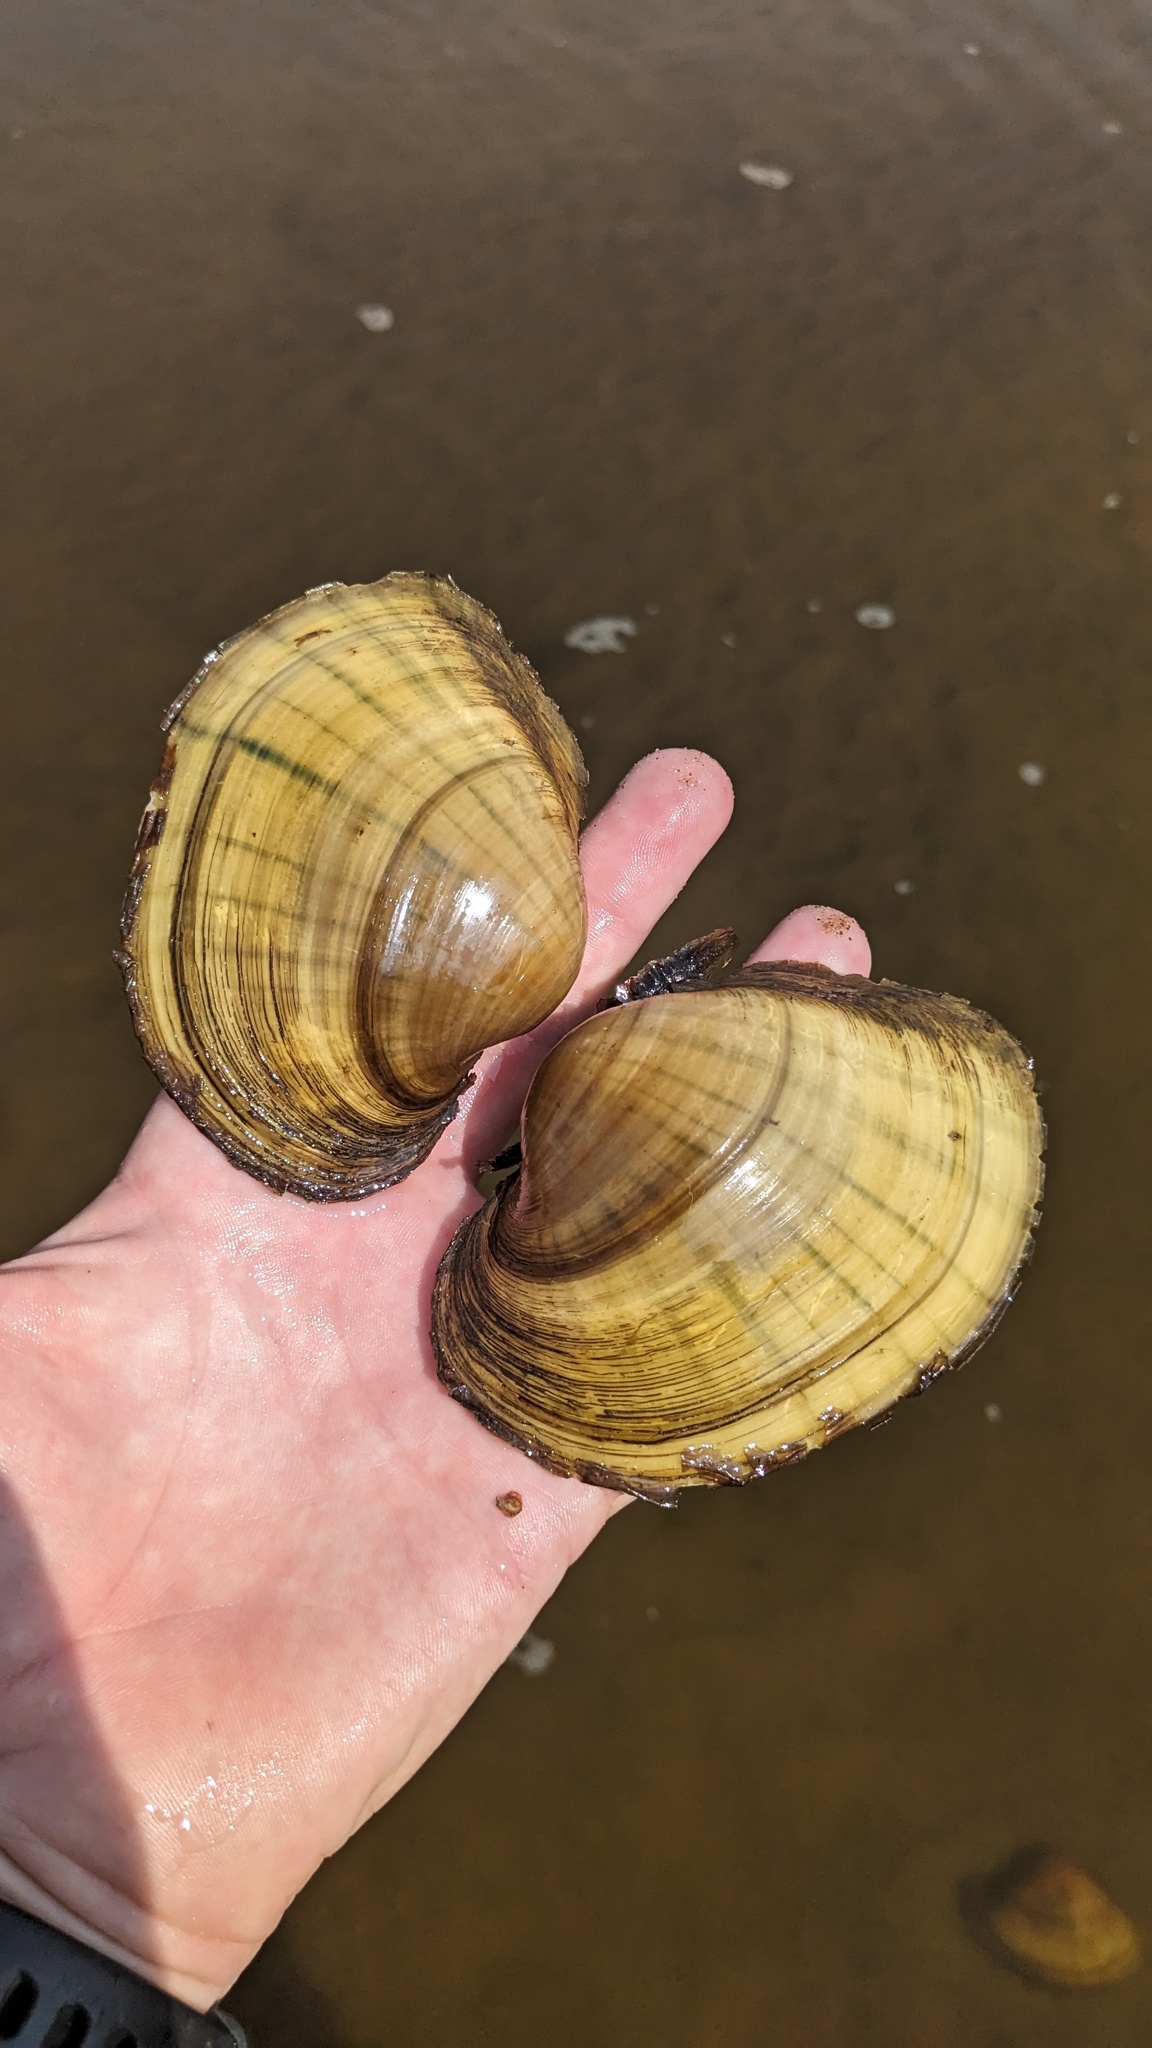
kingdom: Animalia
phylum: Mollusca
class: Bivalvia
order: Unionida
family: Unionidae
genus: Lampsilis
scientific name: Lampsilis cardium
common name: Plain pocketbook
